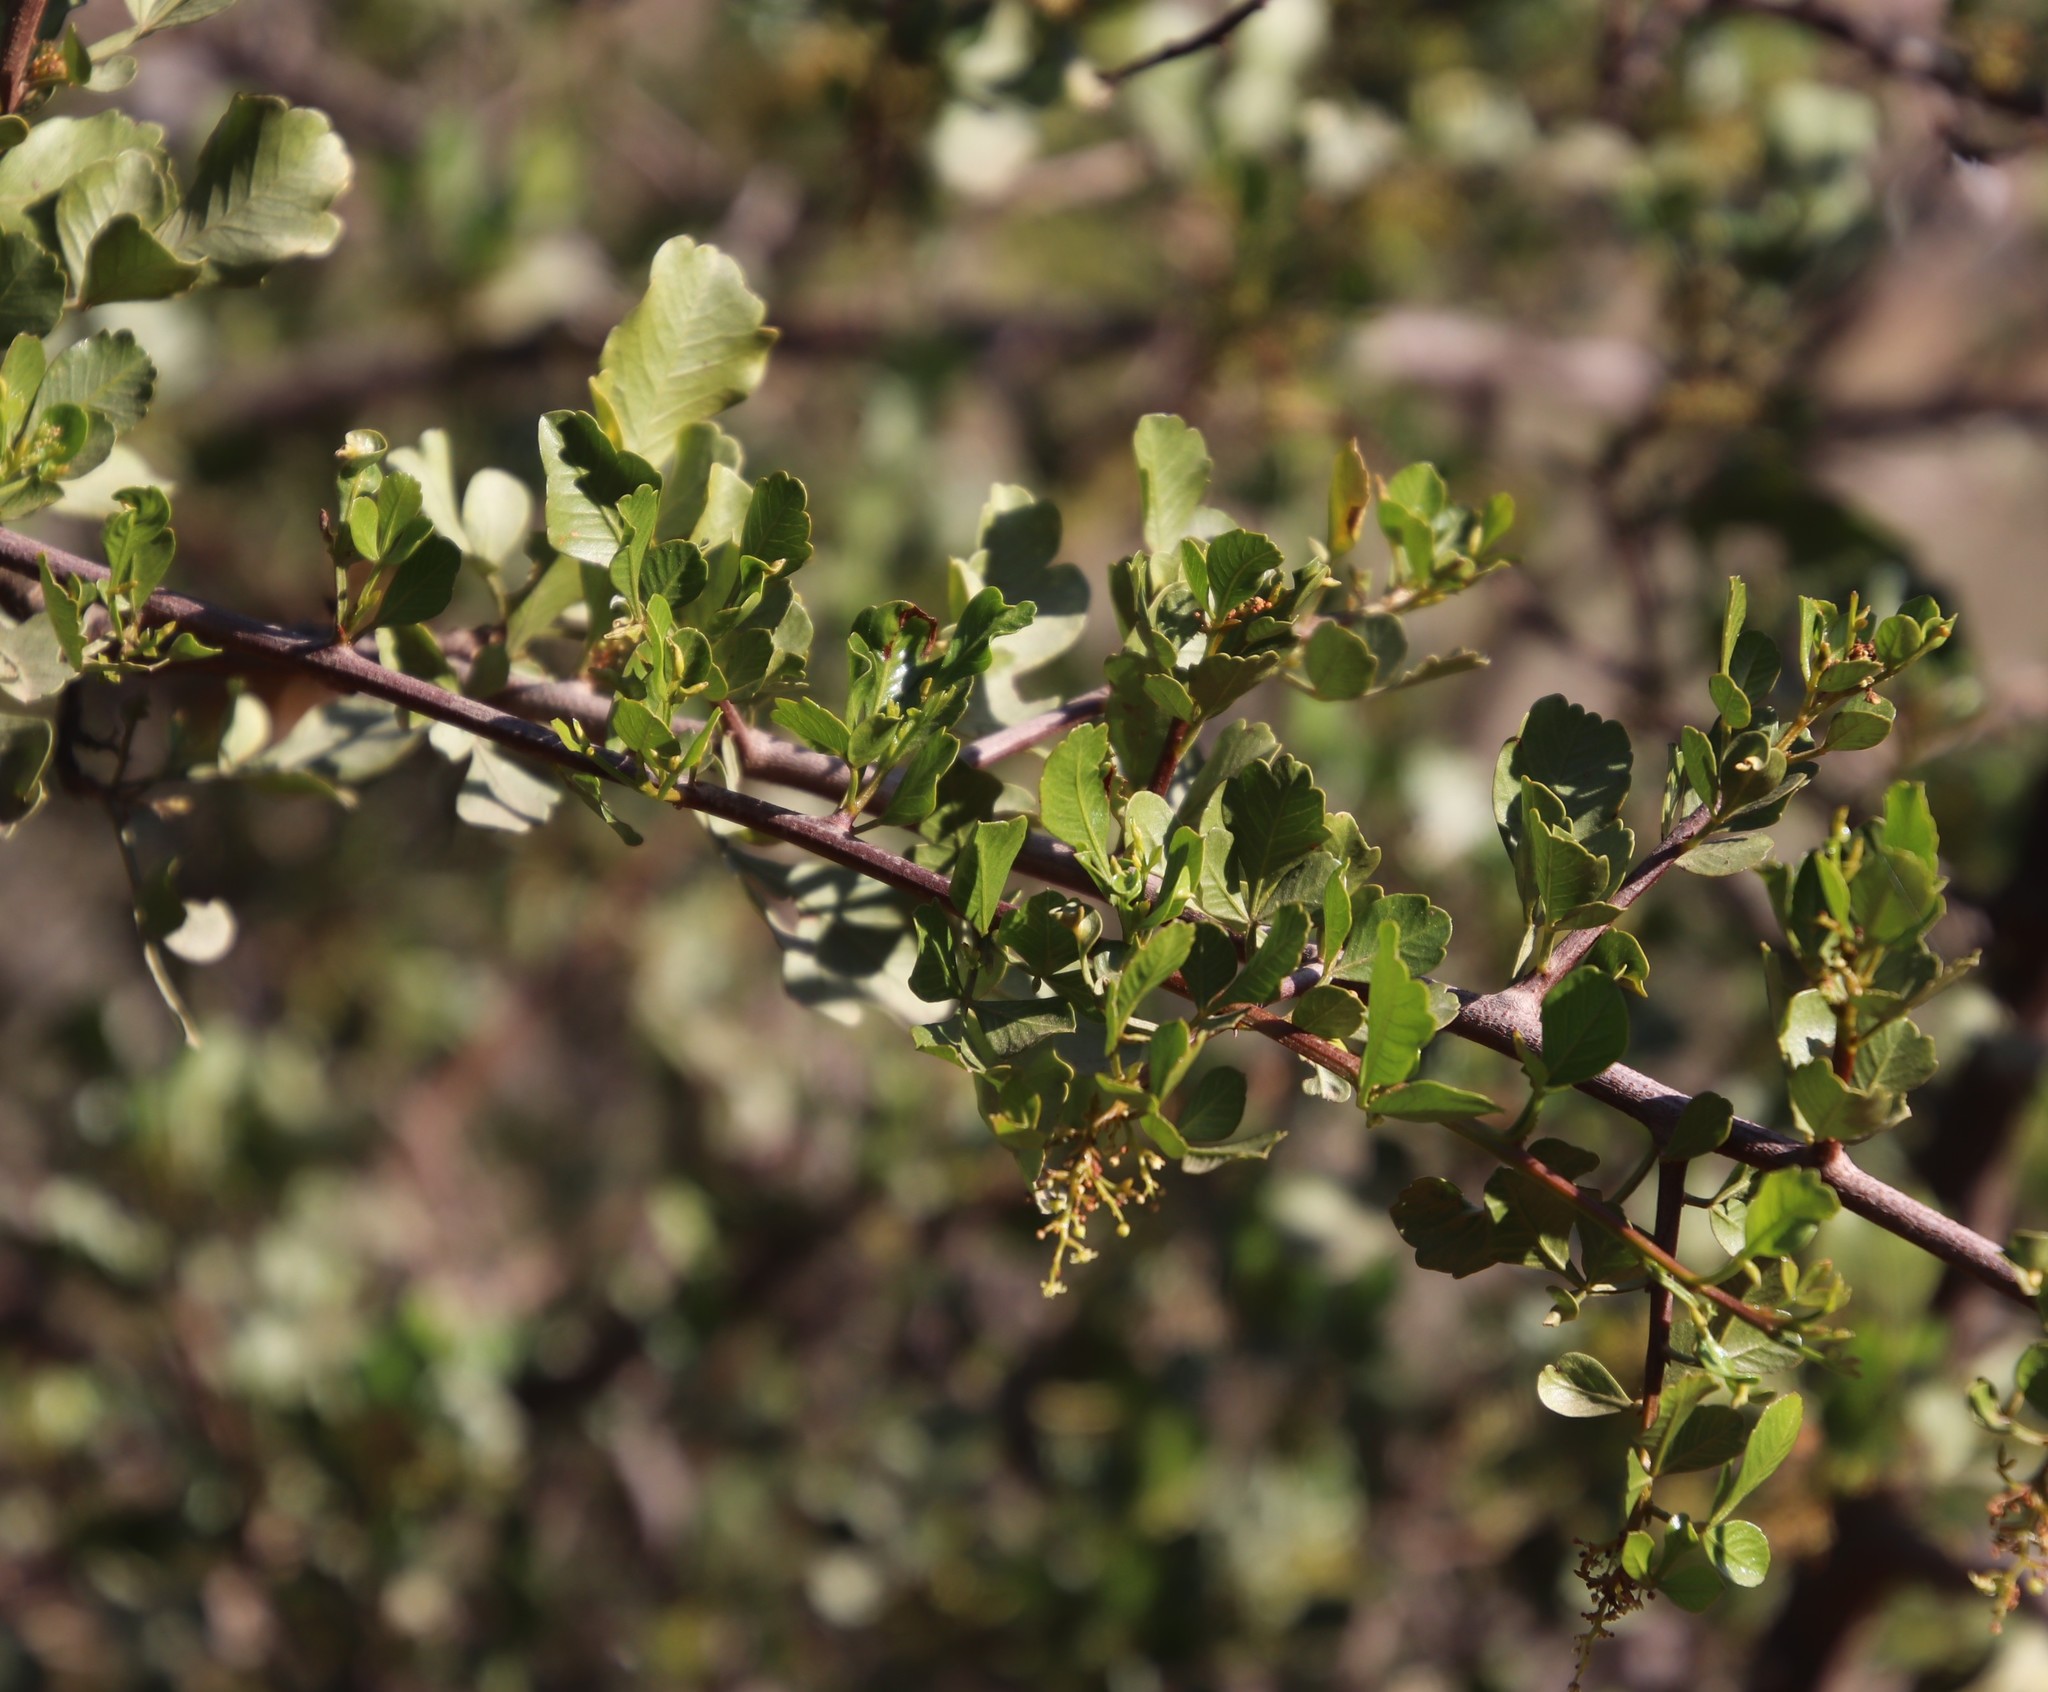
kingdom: Plantae
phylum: Tracheophyta
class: Magnoliopsida
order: Sapindales
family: Anacardiaceae
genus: Searsia
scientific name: Searsia undulata
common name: Namaqua kunibush
